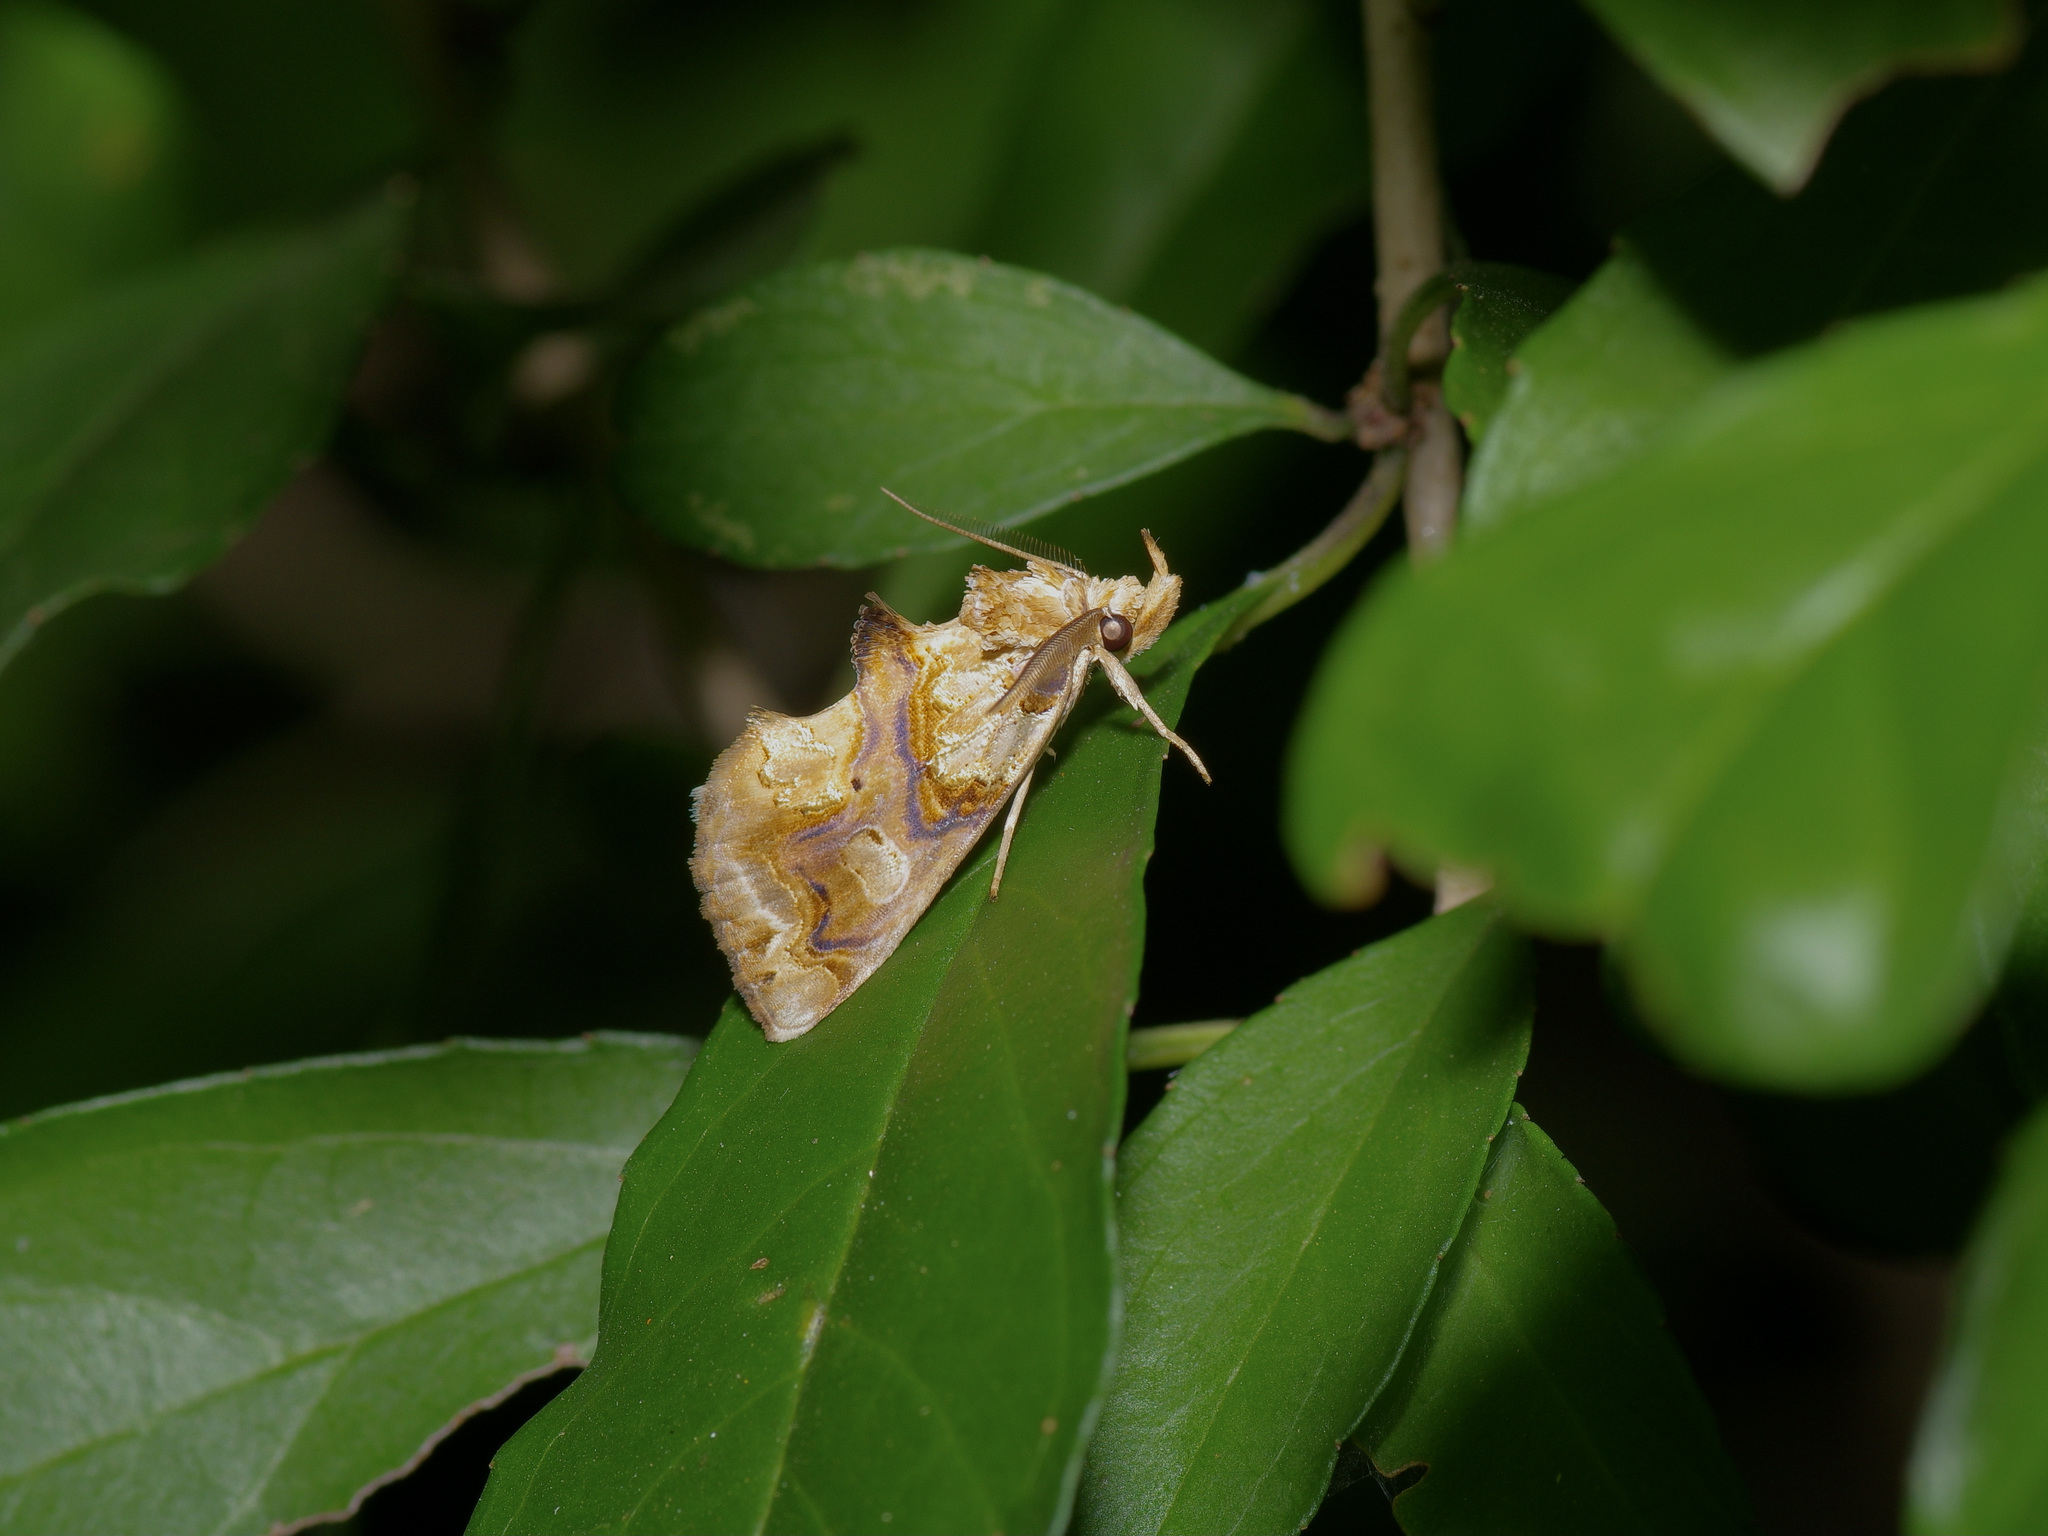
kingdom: Animalia
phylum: Arthropoda
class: Insecta
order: Lepidoptera
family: Erebidae
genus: Plusiodonta
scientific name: Plusiodonta compressipalpis
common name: Moonseed moth
